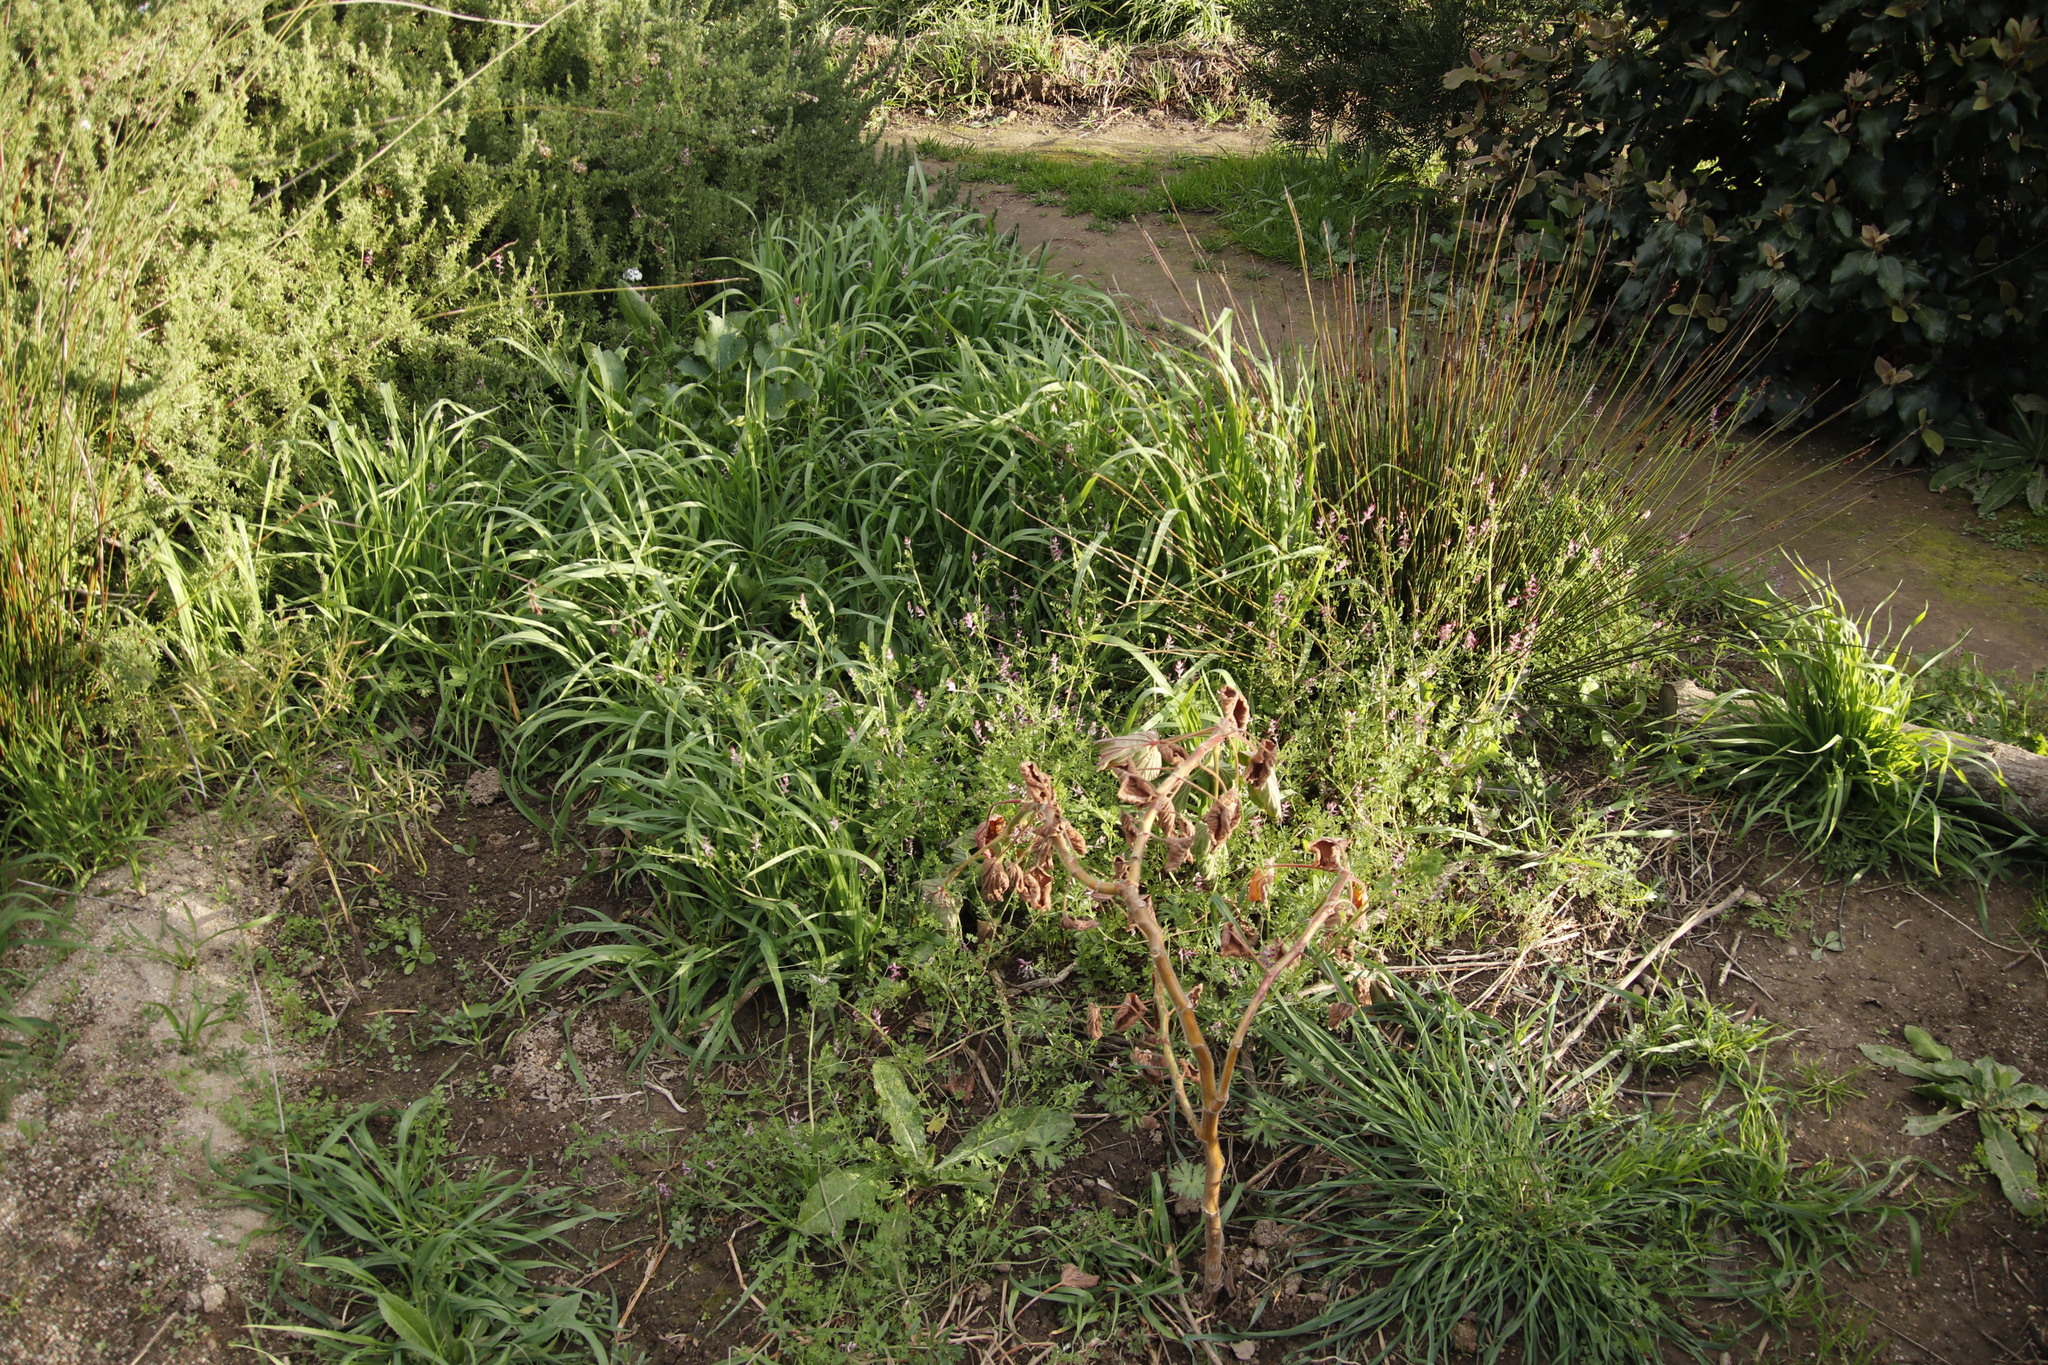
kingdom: Plantae
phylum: Tracheophyta
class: Magnoliopsida
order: Ranunculales
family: Papaveraceae
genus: Fumaria
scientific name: Fumaria muralis
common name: Common ramping-fumitory
